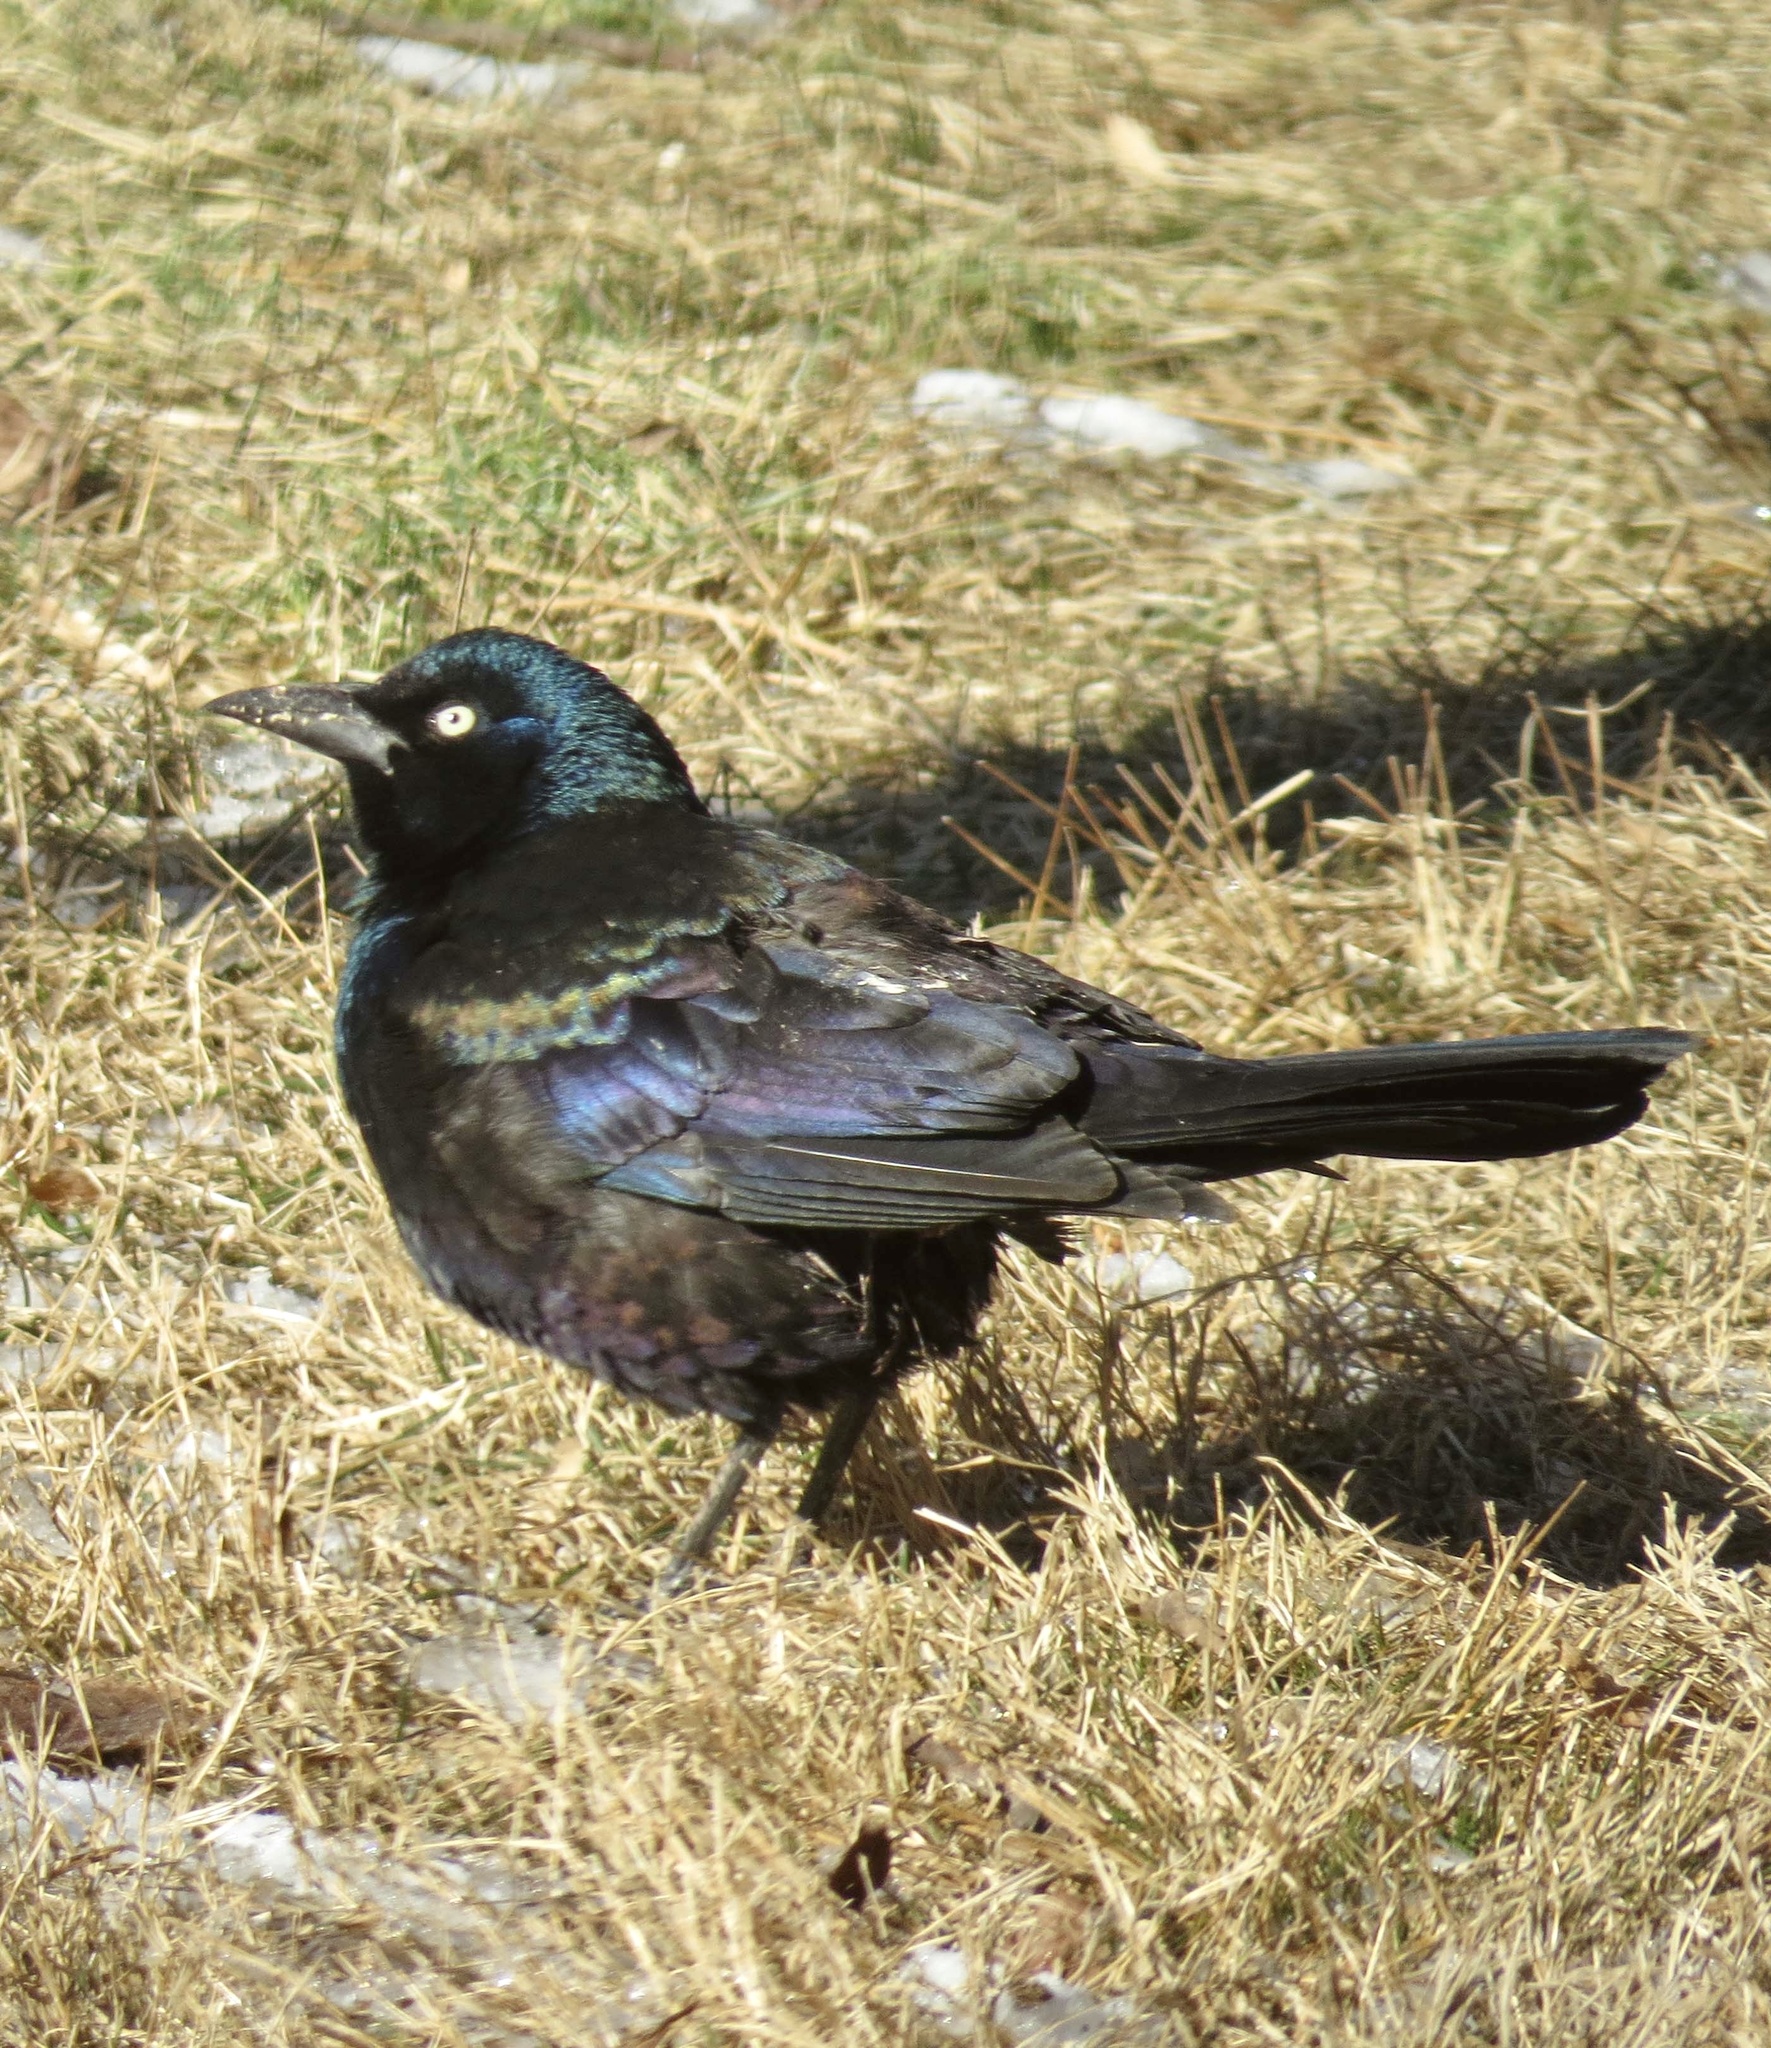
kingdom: Animalia
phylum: Chordata
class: Aves
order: Passeriformes
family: Icteridae
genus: Quiscalus
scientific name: Quiscalus quiscula
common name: Common grackle
